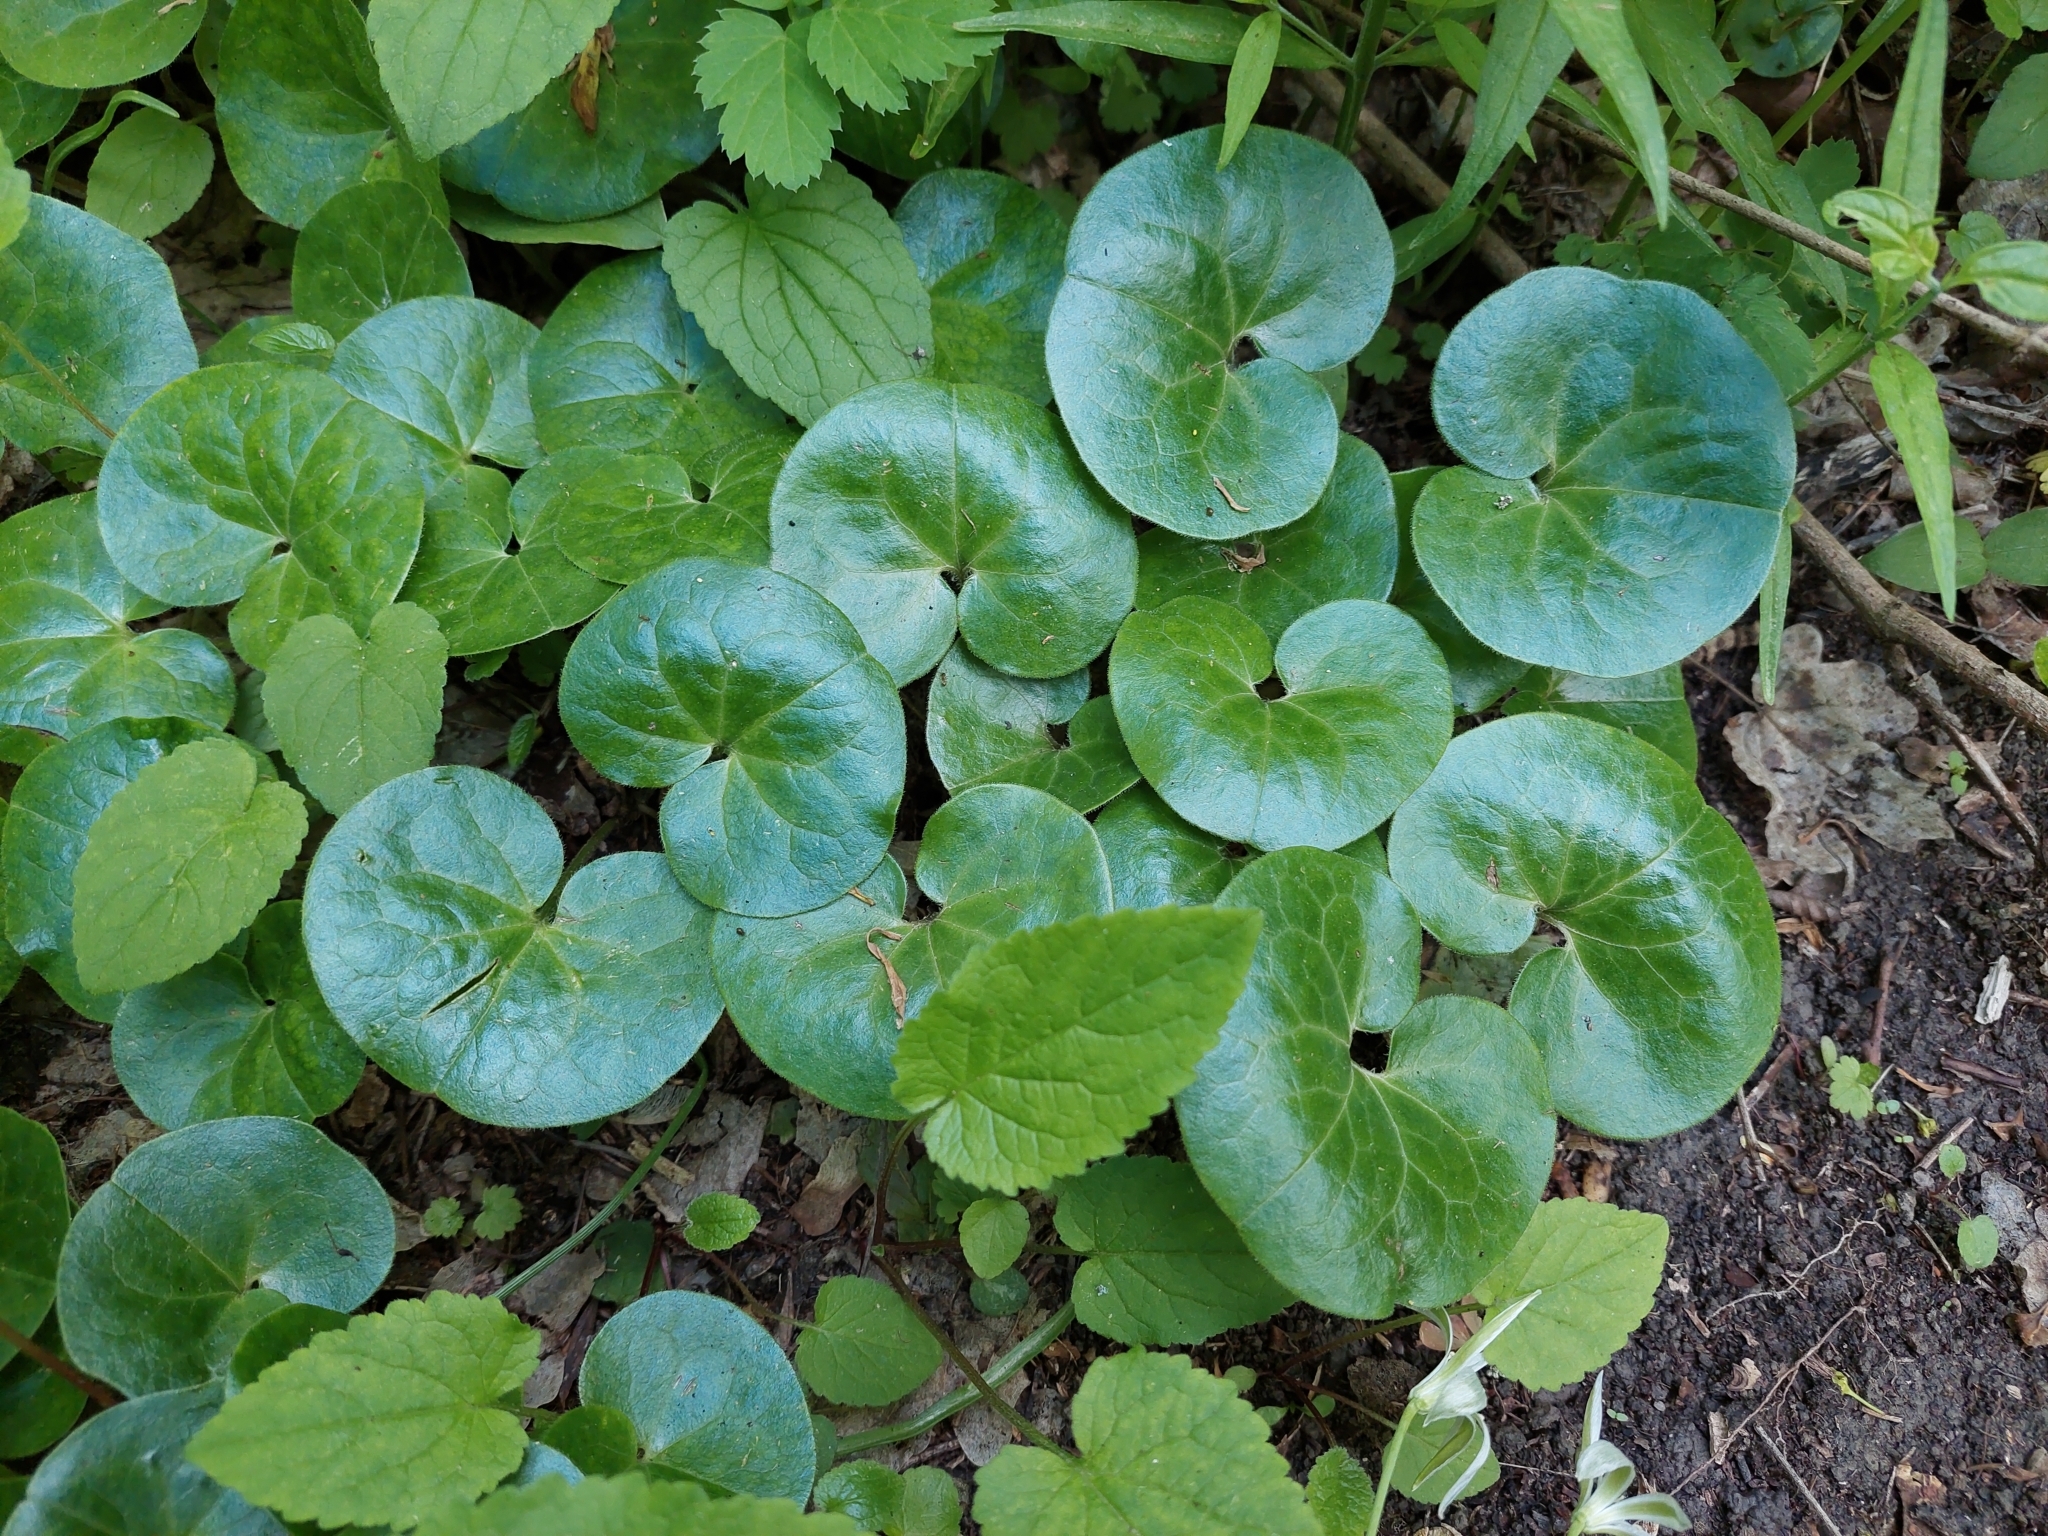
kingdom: Plantae
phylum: Tracheophyta
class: Magnoliopsida
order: Piperales
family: Aristolochiaceae
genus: Asarum
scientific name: Asarum europaeum
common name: Asarabacca
